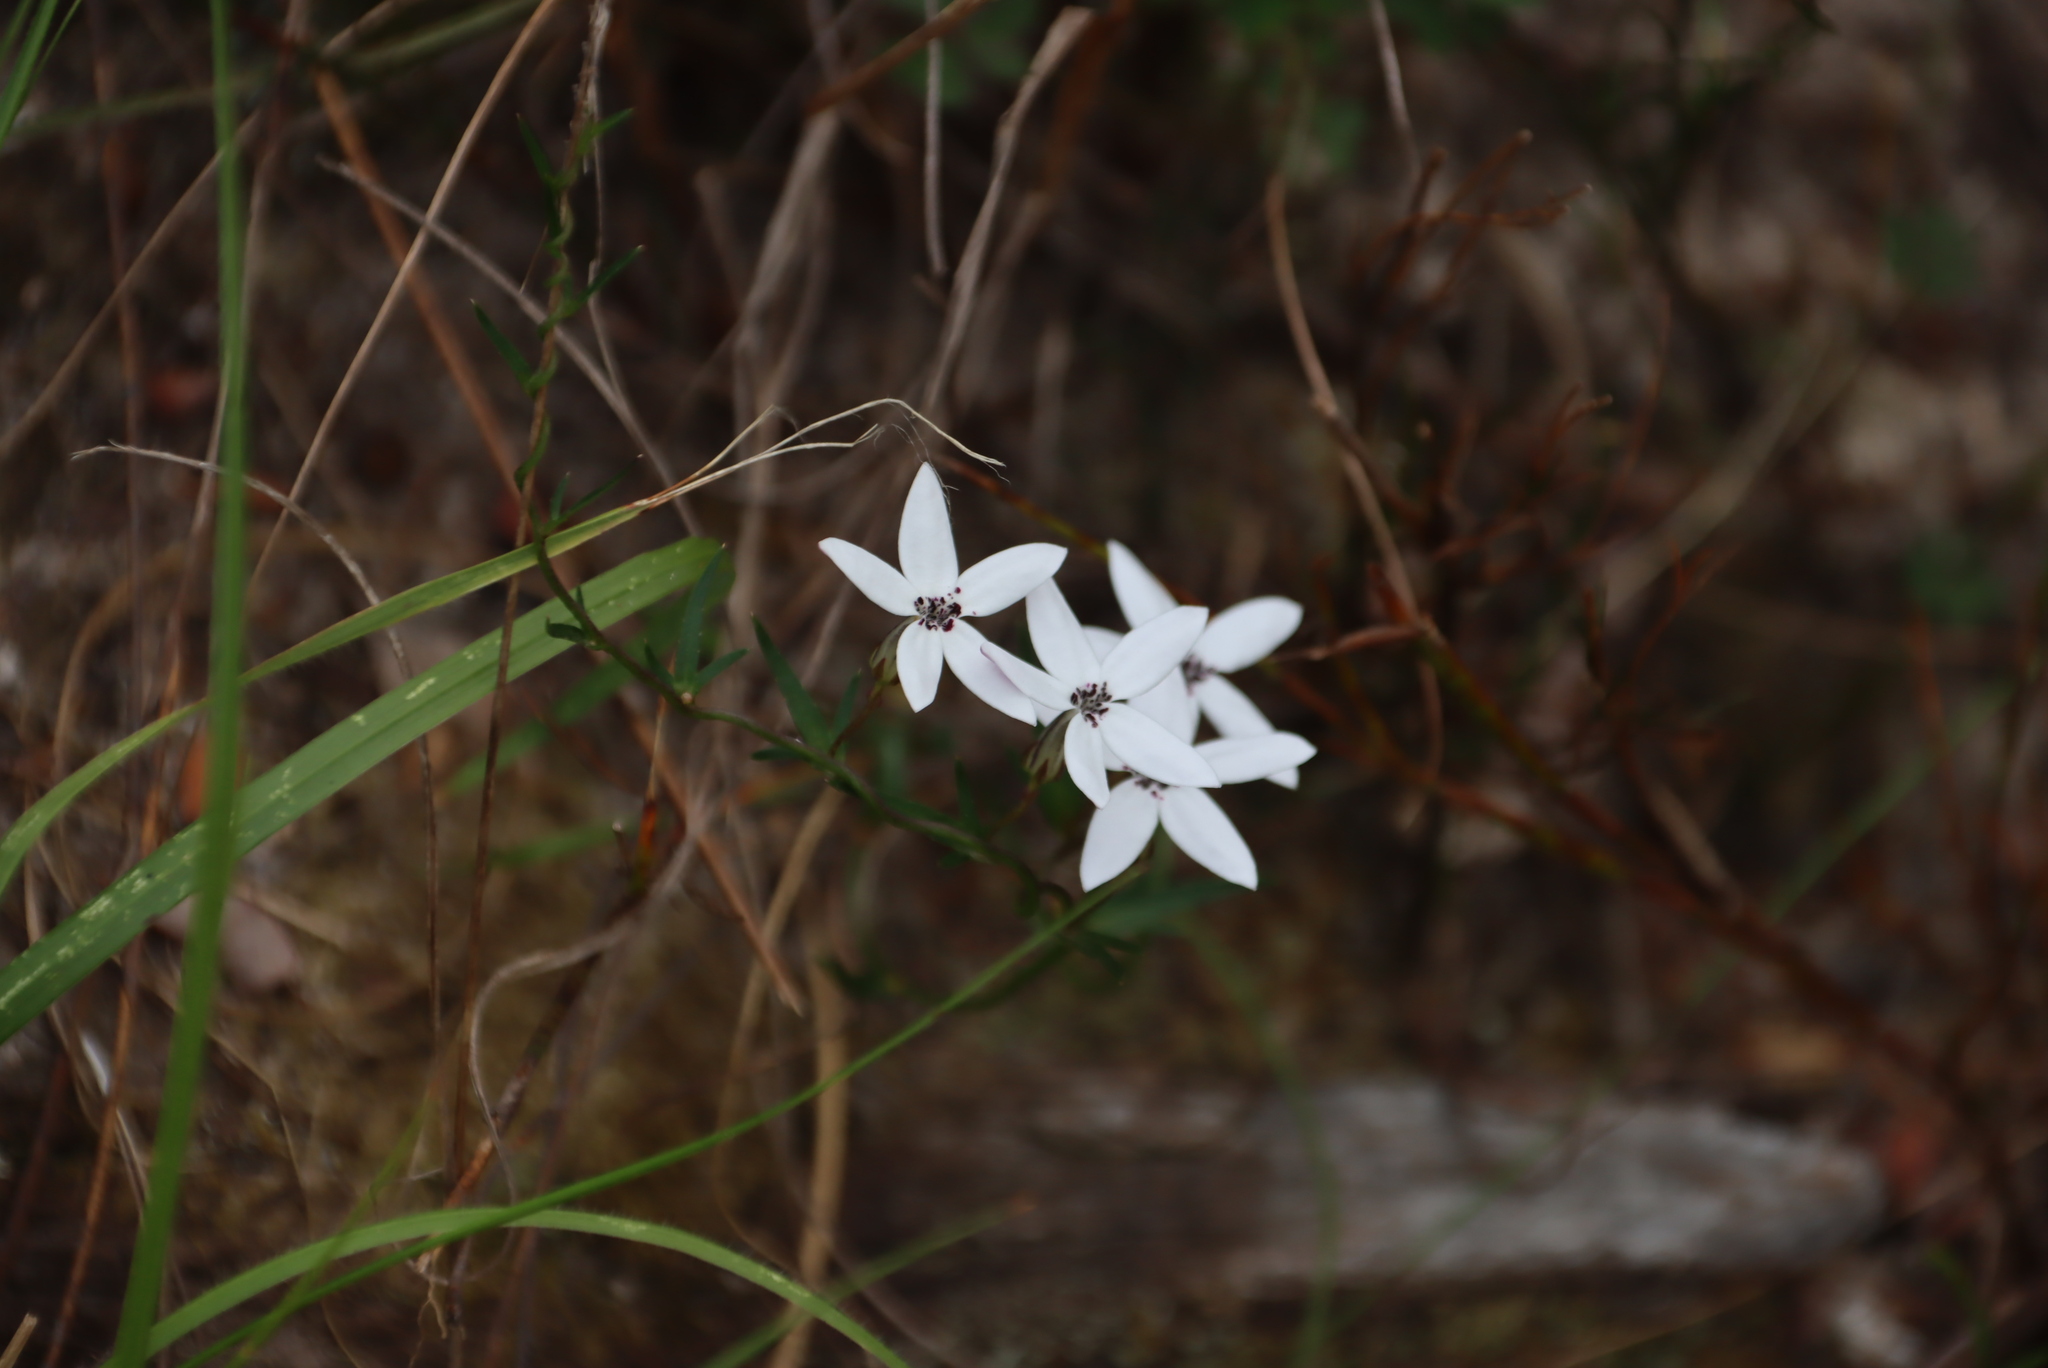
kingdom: Plantae
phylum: Tracheophyta
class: Magnoliopsida
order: Asterales
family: Campanulaceae
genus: Cyphia
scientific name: Cyphia volubilis
